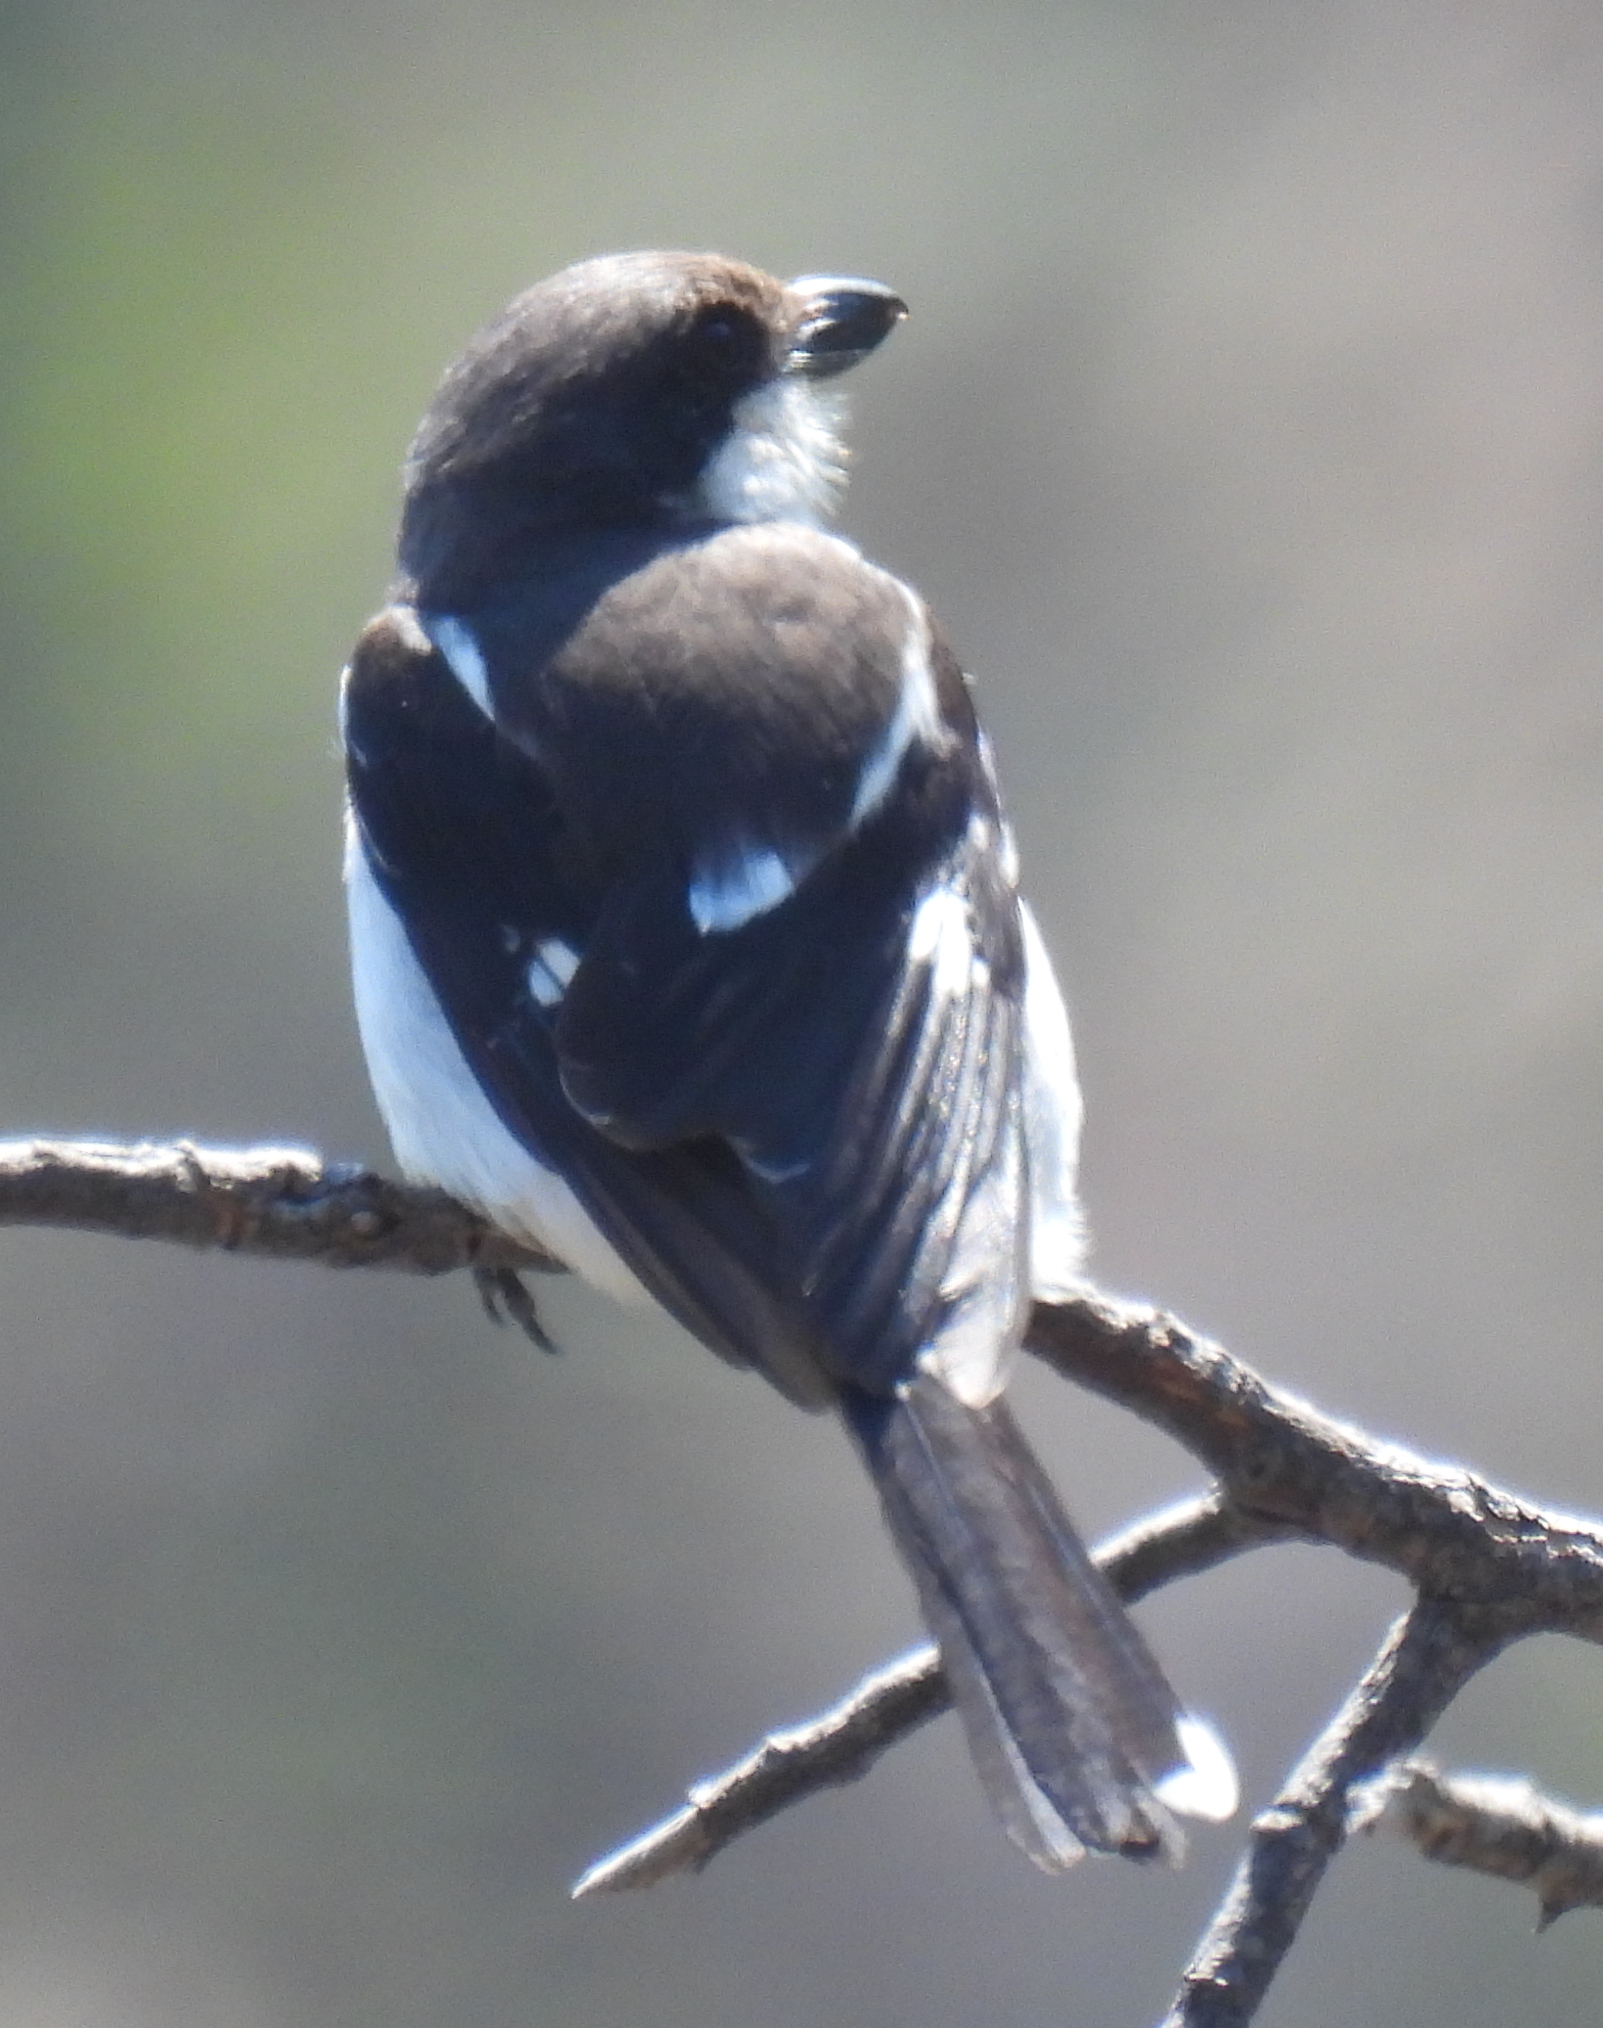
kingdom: Animalia
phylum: Chordata
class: Aves
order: Passeriformes
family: Laniidae
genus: Lanius
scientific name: Lanius collaris
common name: Southern fiscal
